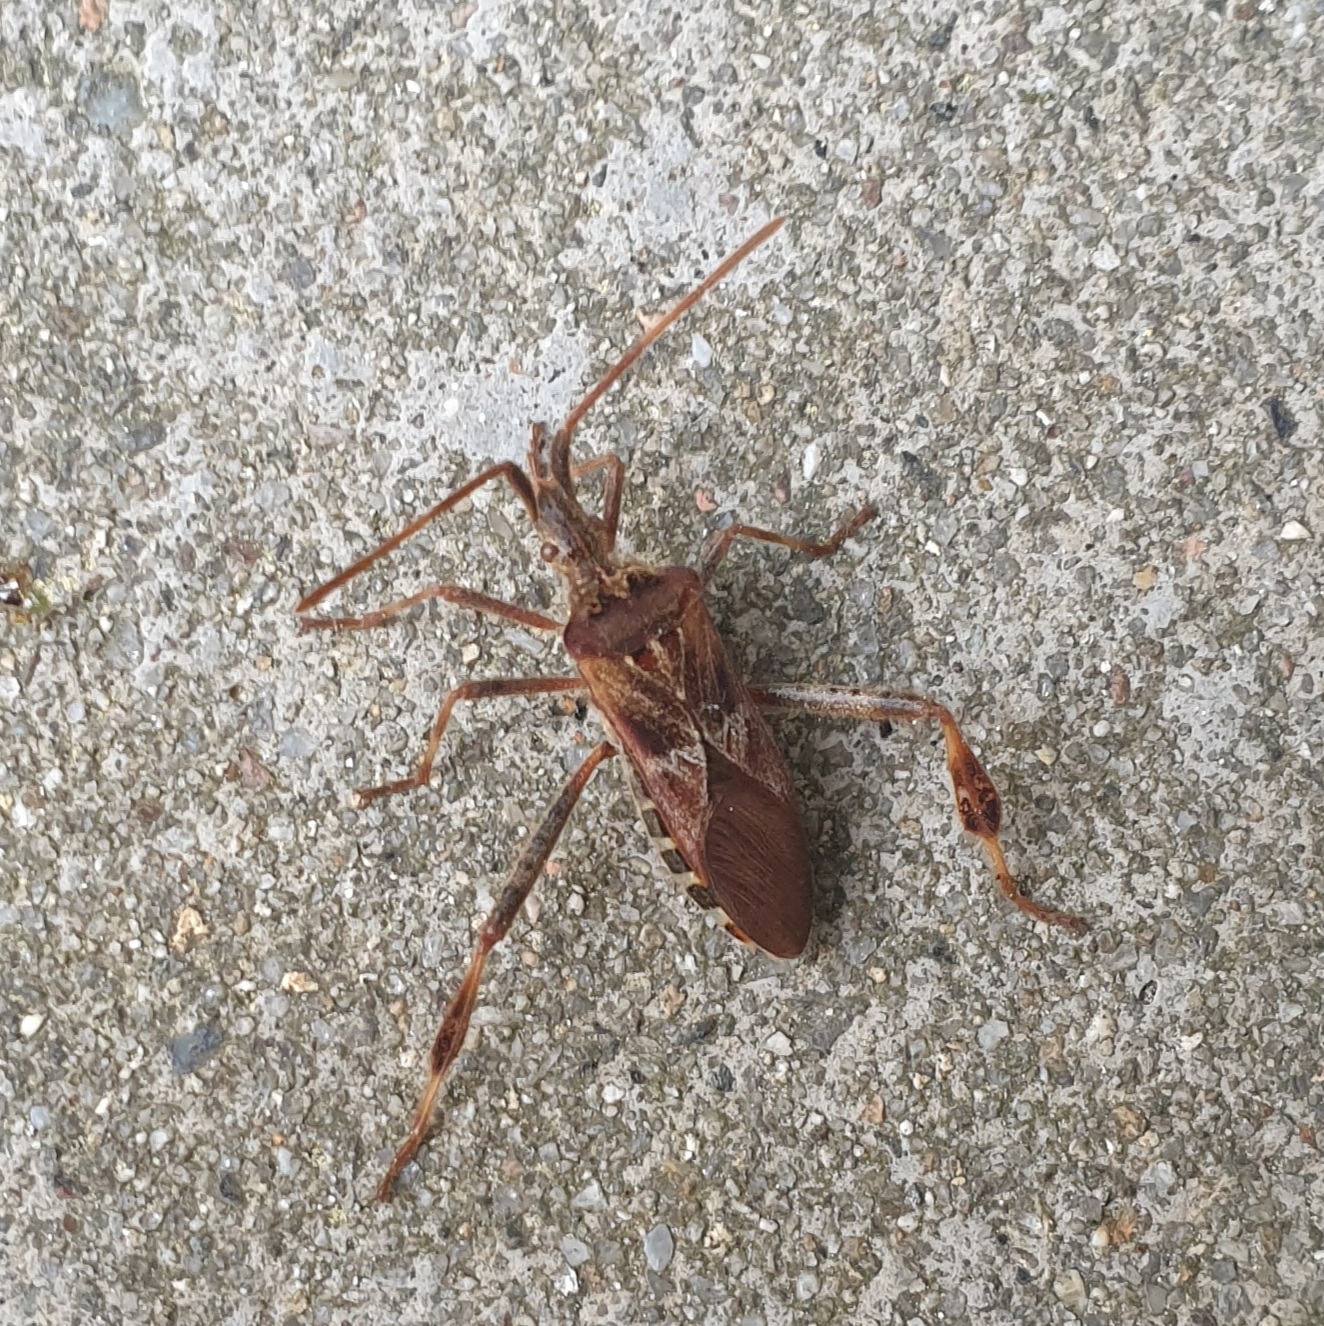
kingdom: Animalia
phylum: Arthropoda
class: Insecta
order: Hemiptera
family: Coreidae
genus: Leptoglossus
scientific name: Leptoglossus occidentalis
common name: Western conifer-seed bug
